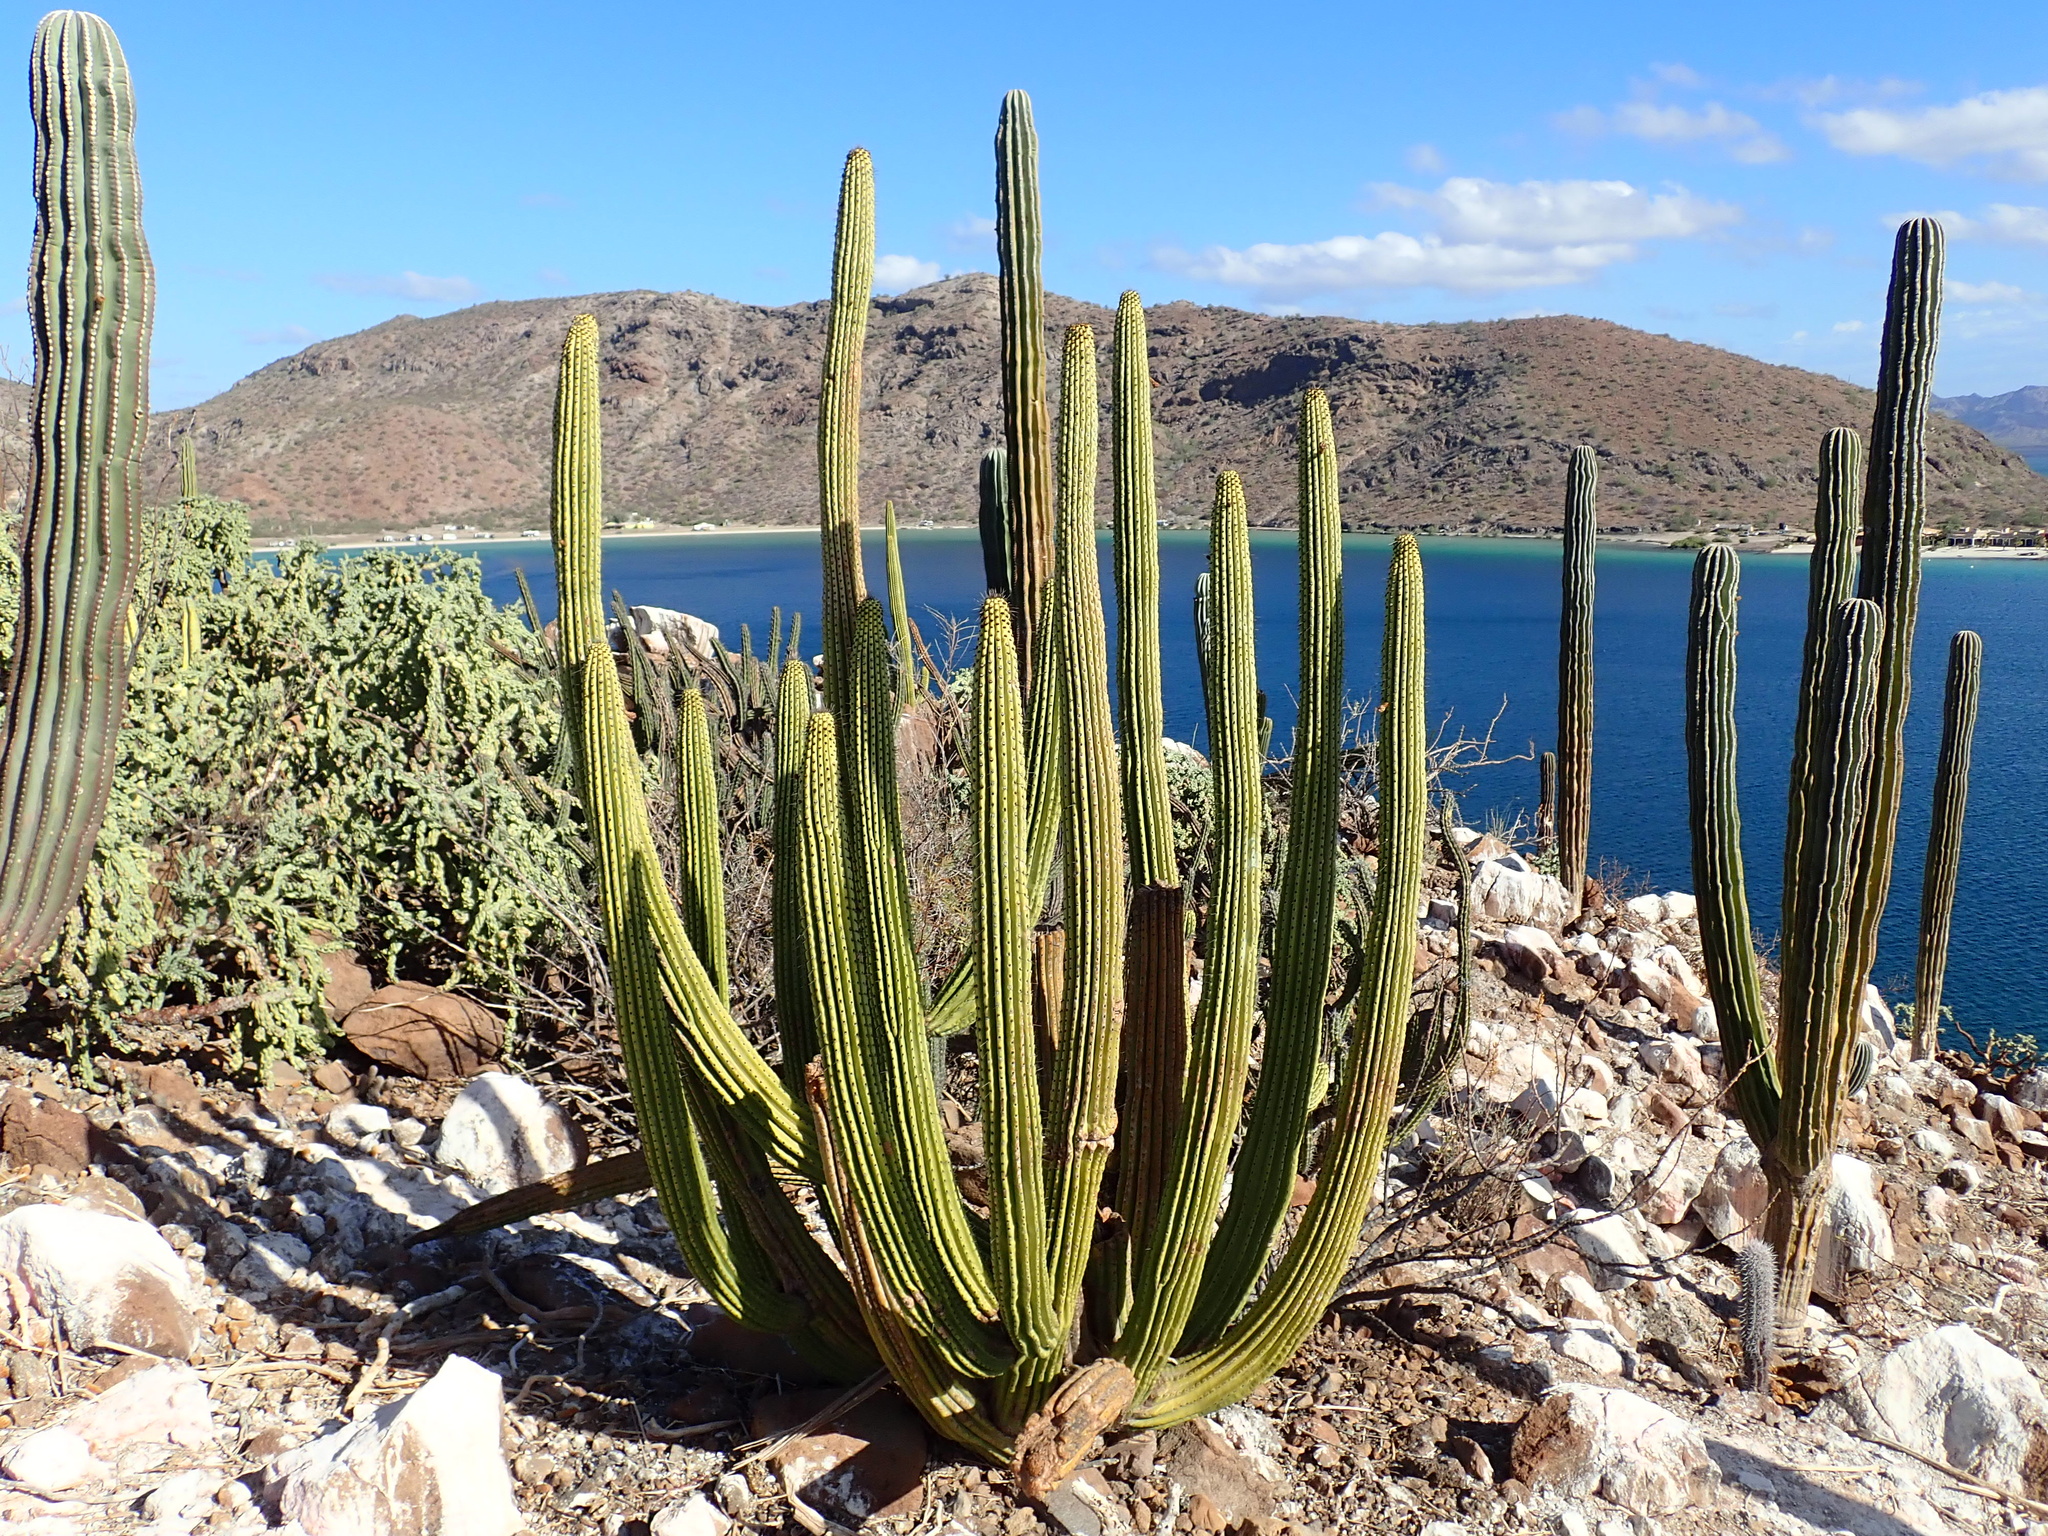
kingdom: Plantae
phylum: Tracheophyta
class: Magnoliopsida
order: Caryophyllales
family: Cactaceae
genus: Stenocereus
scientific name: Stenocereus thurberi
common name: Organ pipe cactus
